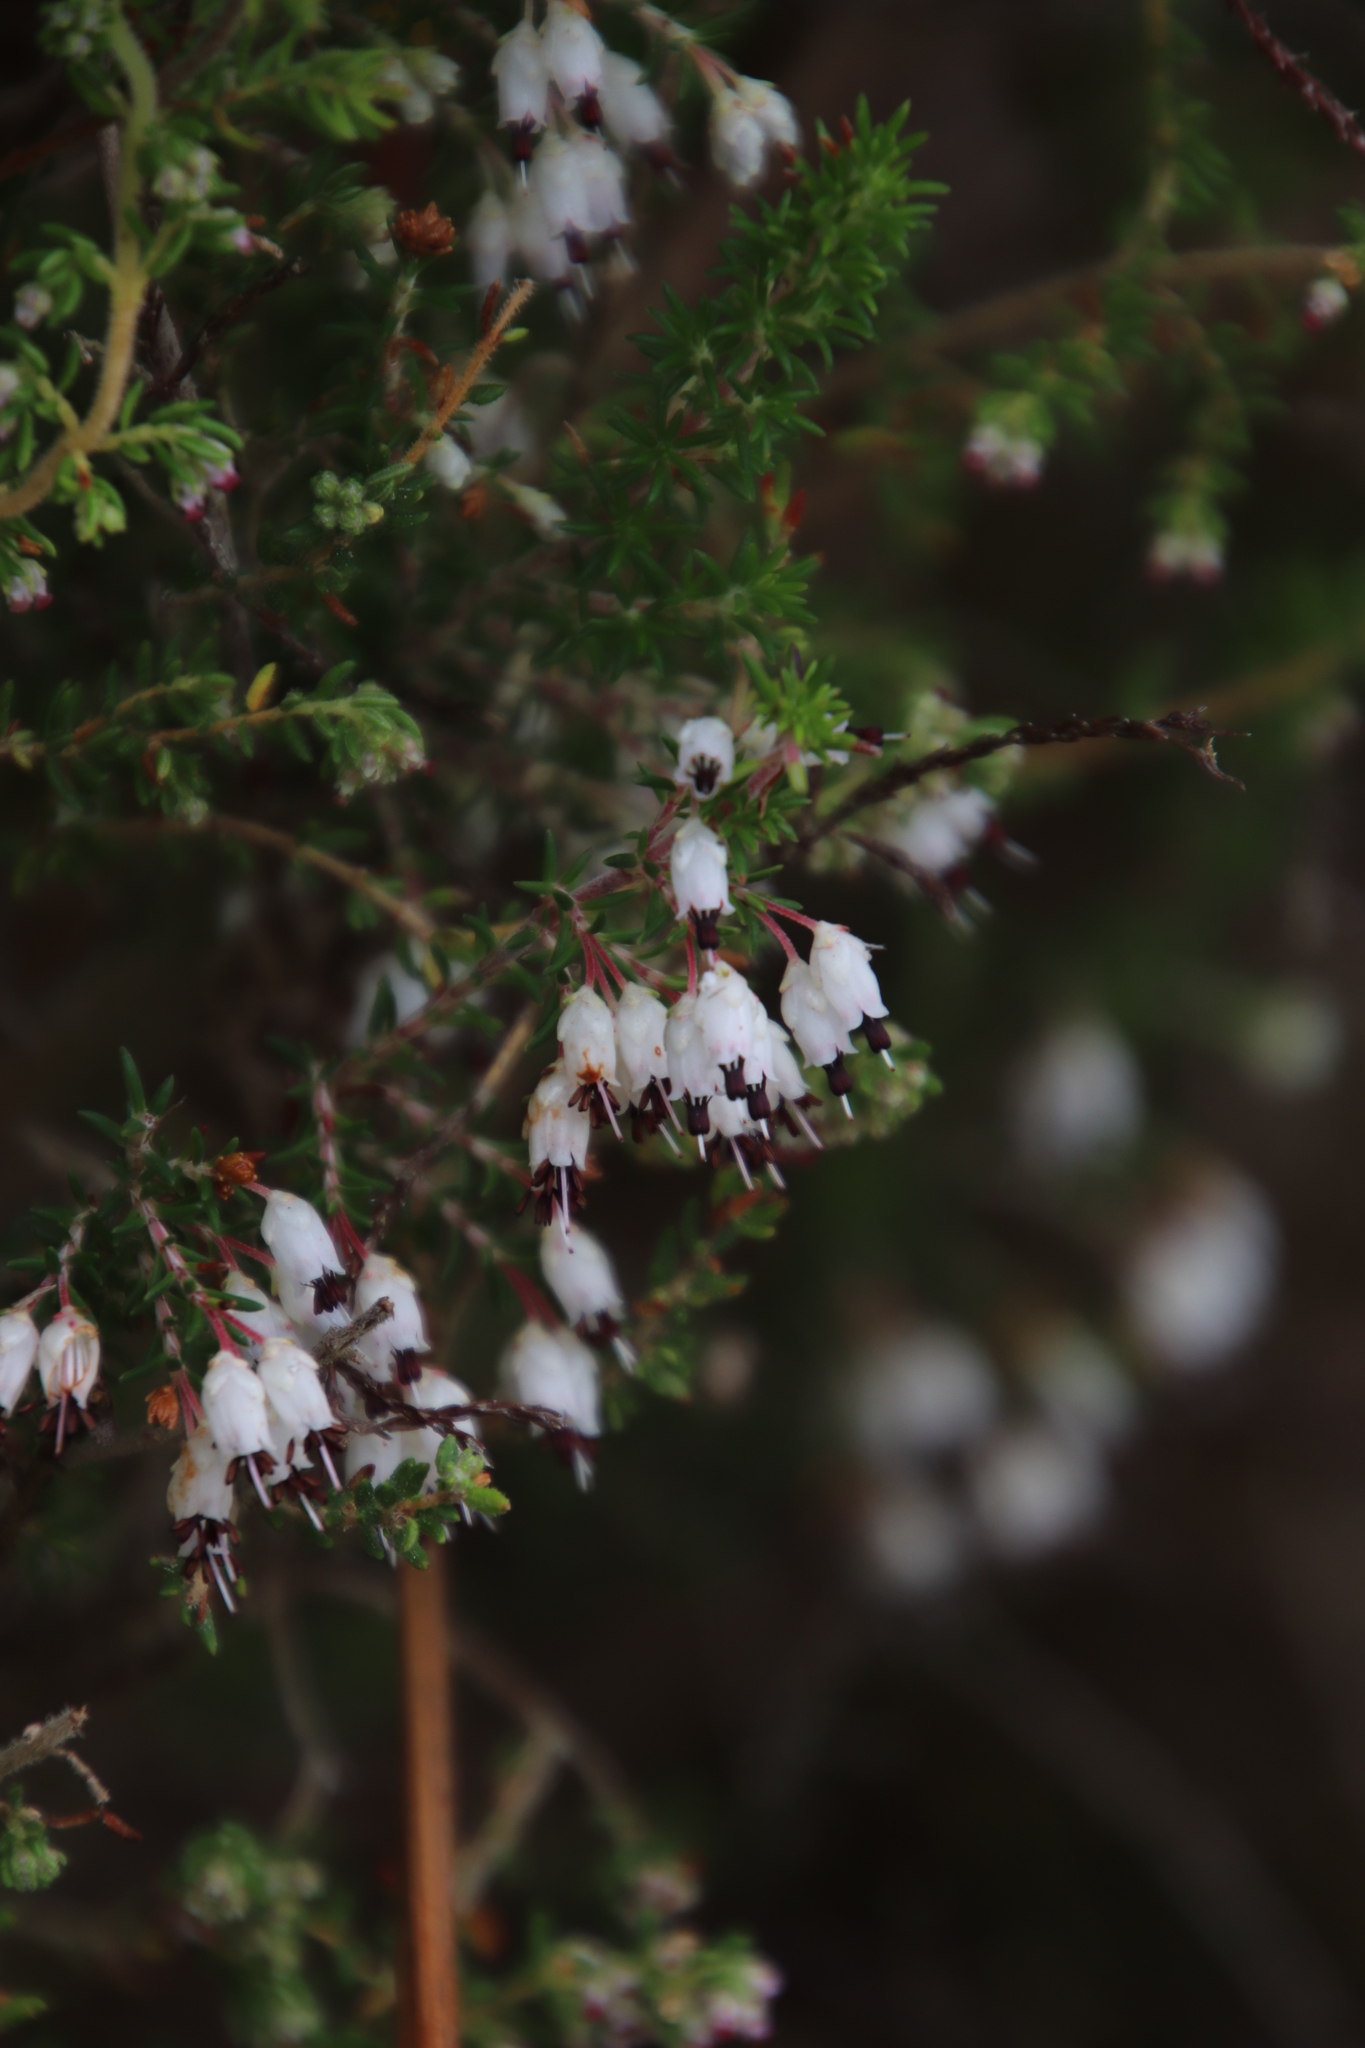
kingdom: Plantae
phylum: Tracheophyta
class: Magnoliopsida
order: Ericales
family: Ericaceae
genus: Erica
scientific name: Erica desmantha
